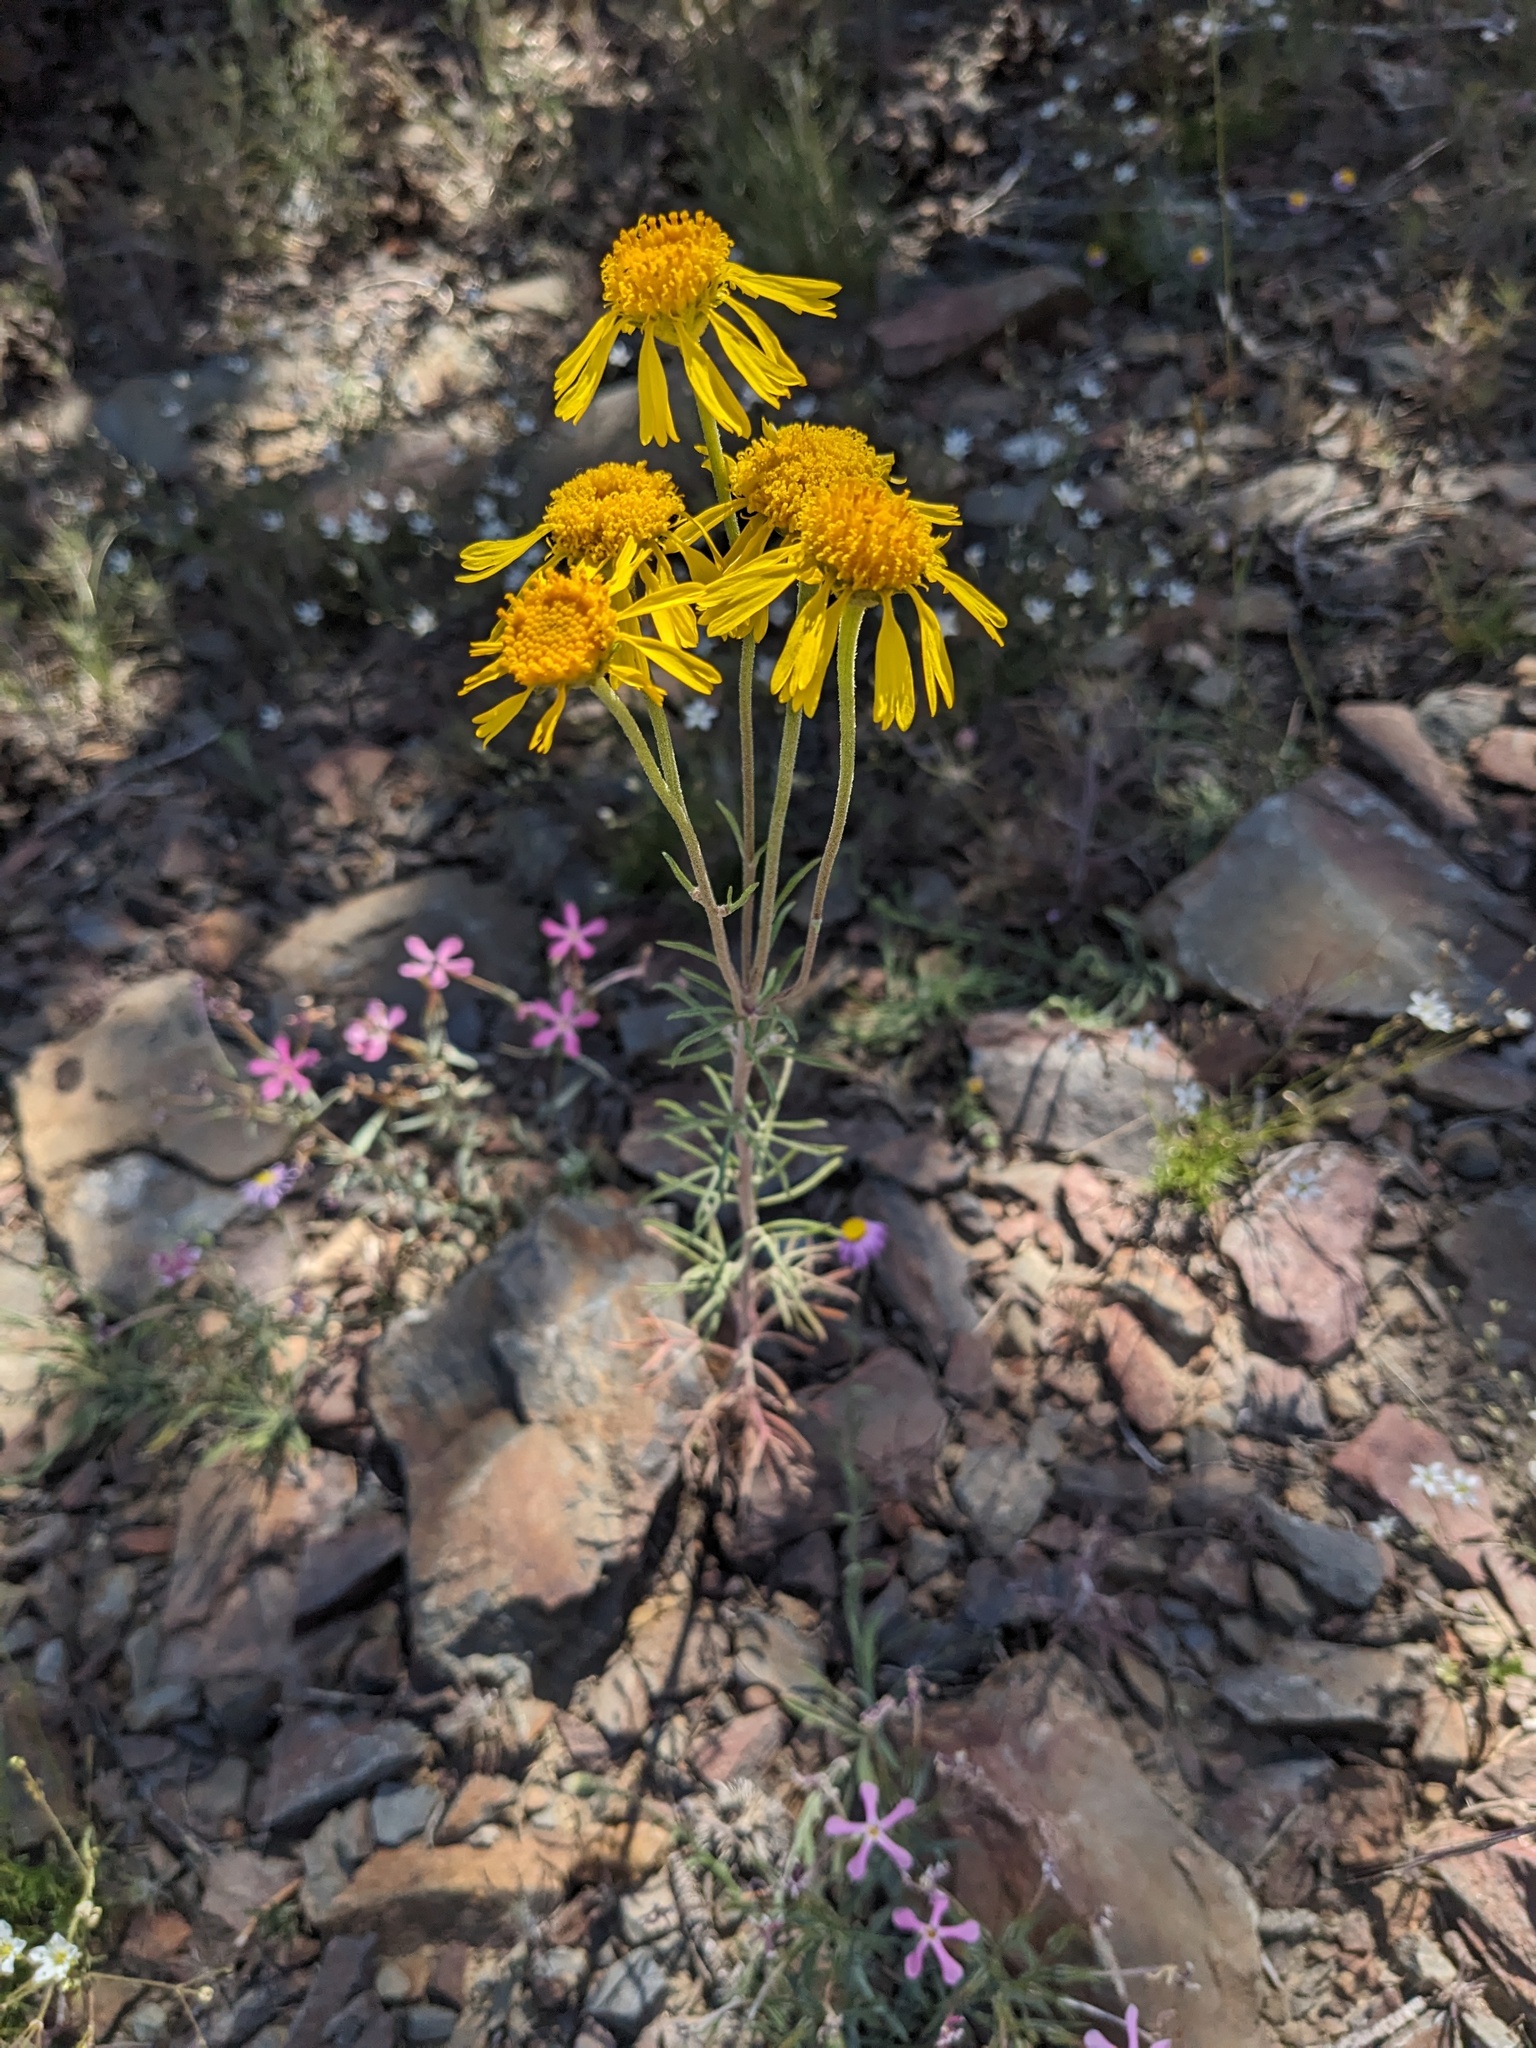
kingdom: Plantae
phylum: Tracheophyta
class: Magnoliopsida
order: Asterales
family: Asteraceae
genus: Hymenoxys
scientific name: Hymenoxys cooperi
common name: Cooper's bitterweed
